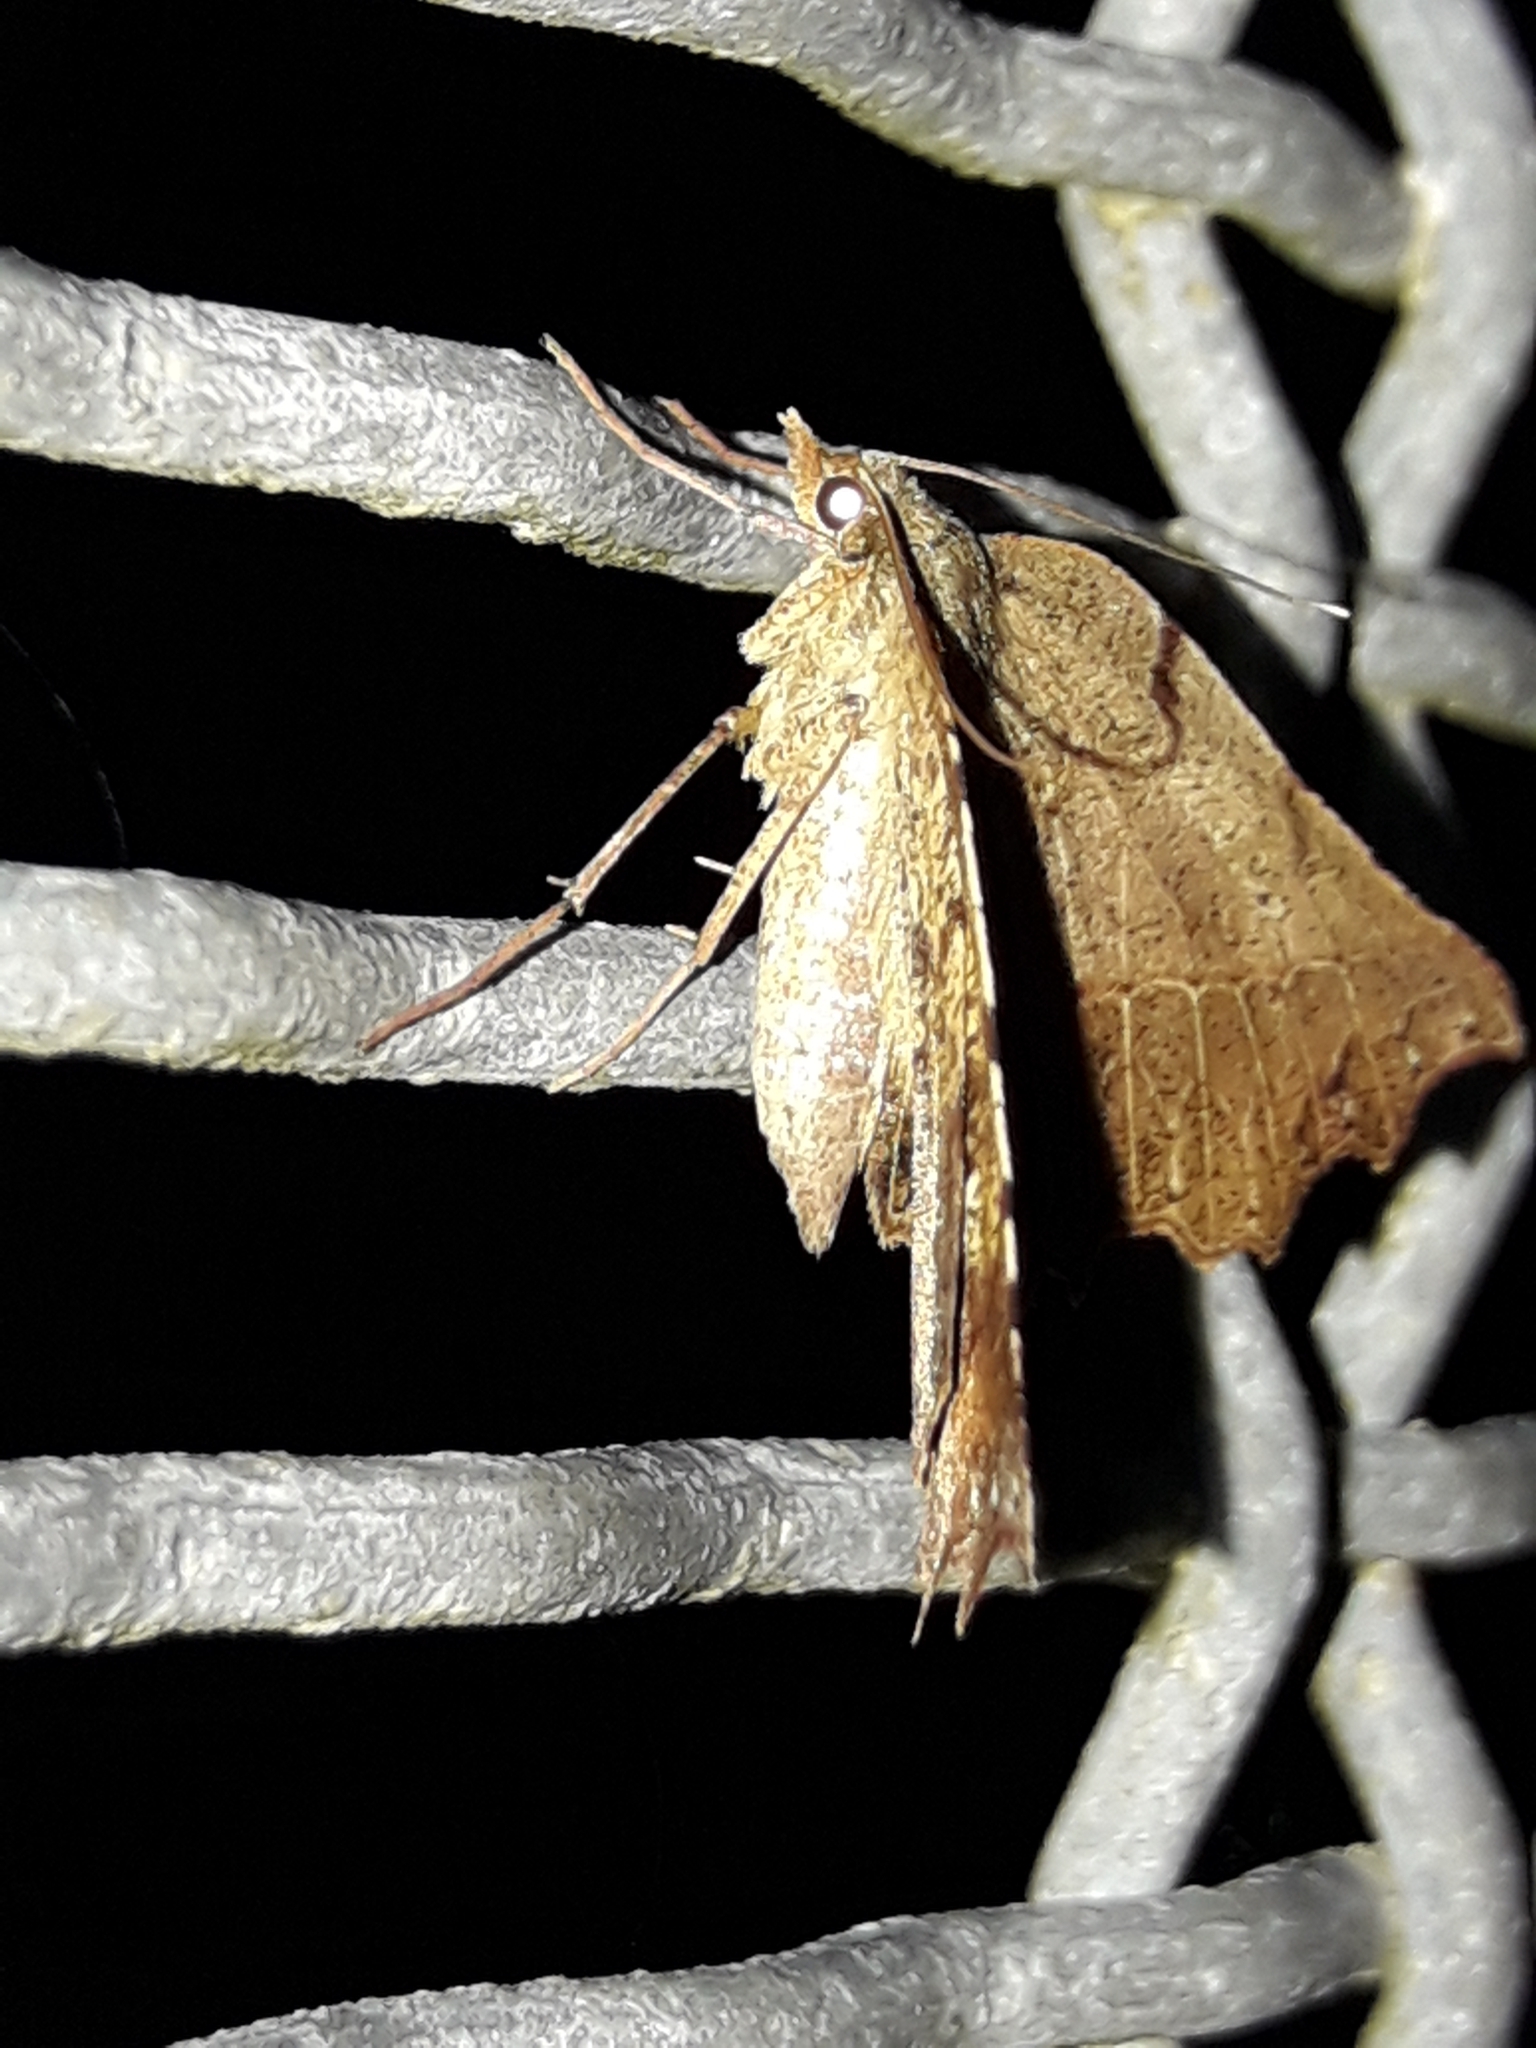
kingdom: Animalia
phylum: Arthropoda
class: Insecta
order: Lepidoptera
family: Geometridae
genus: Ischalis
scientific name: Ischalis gallaria
